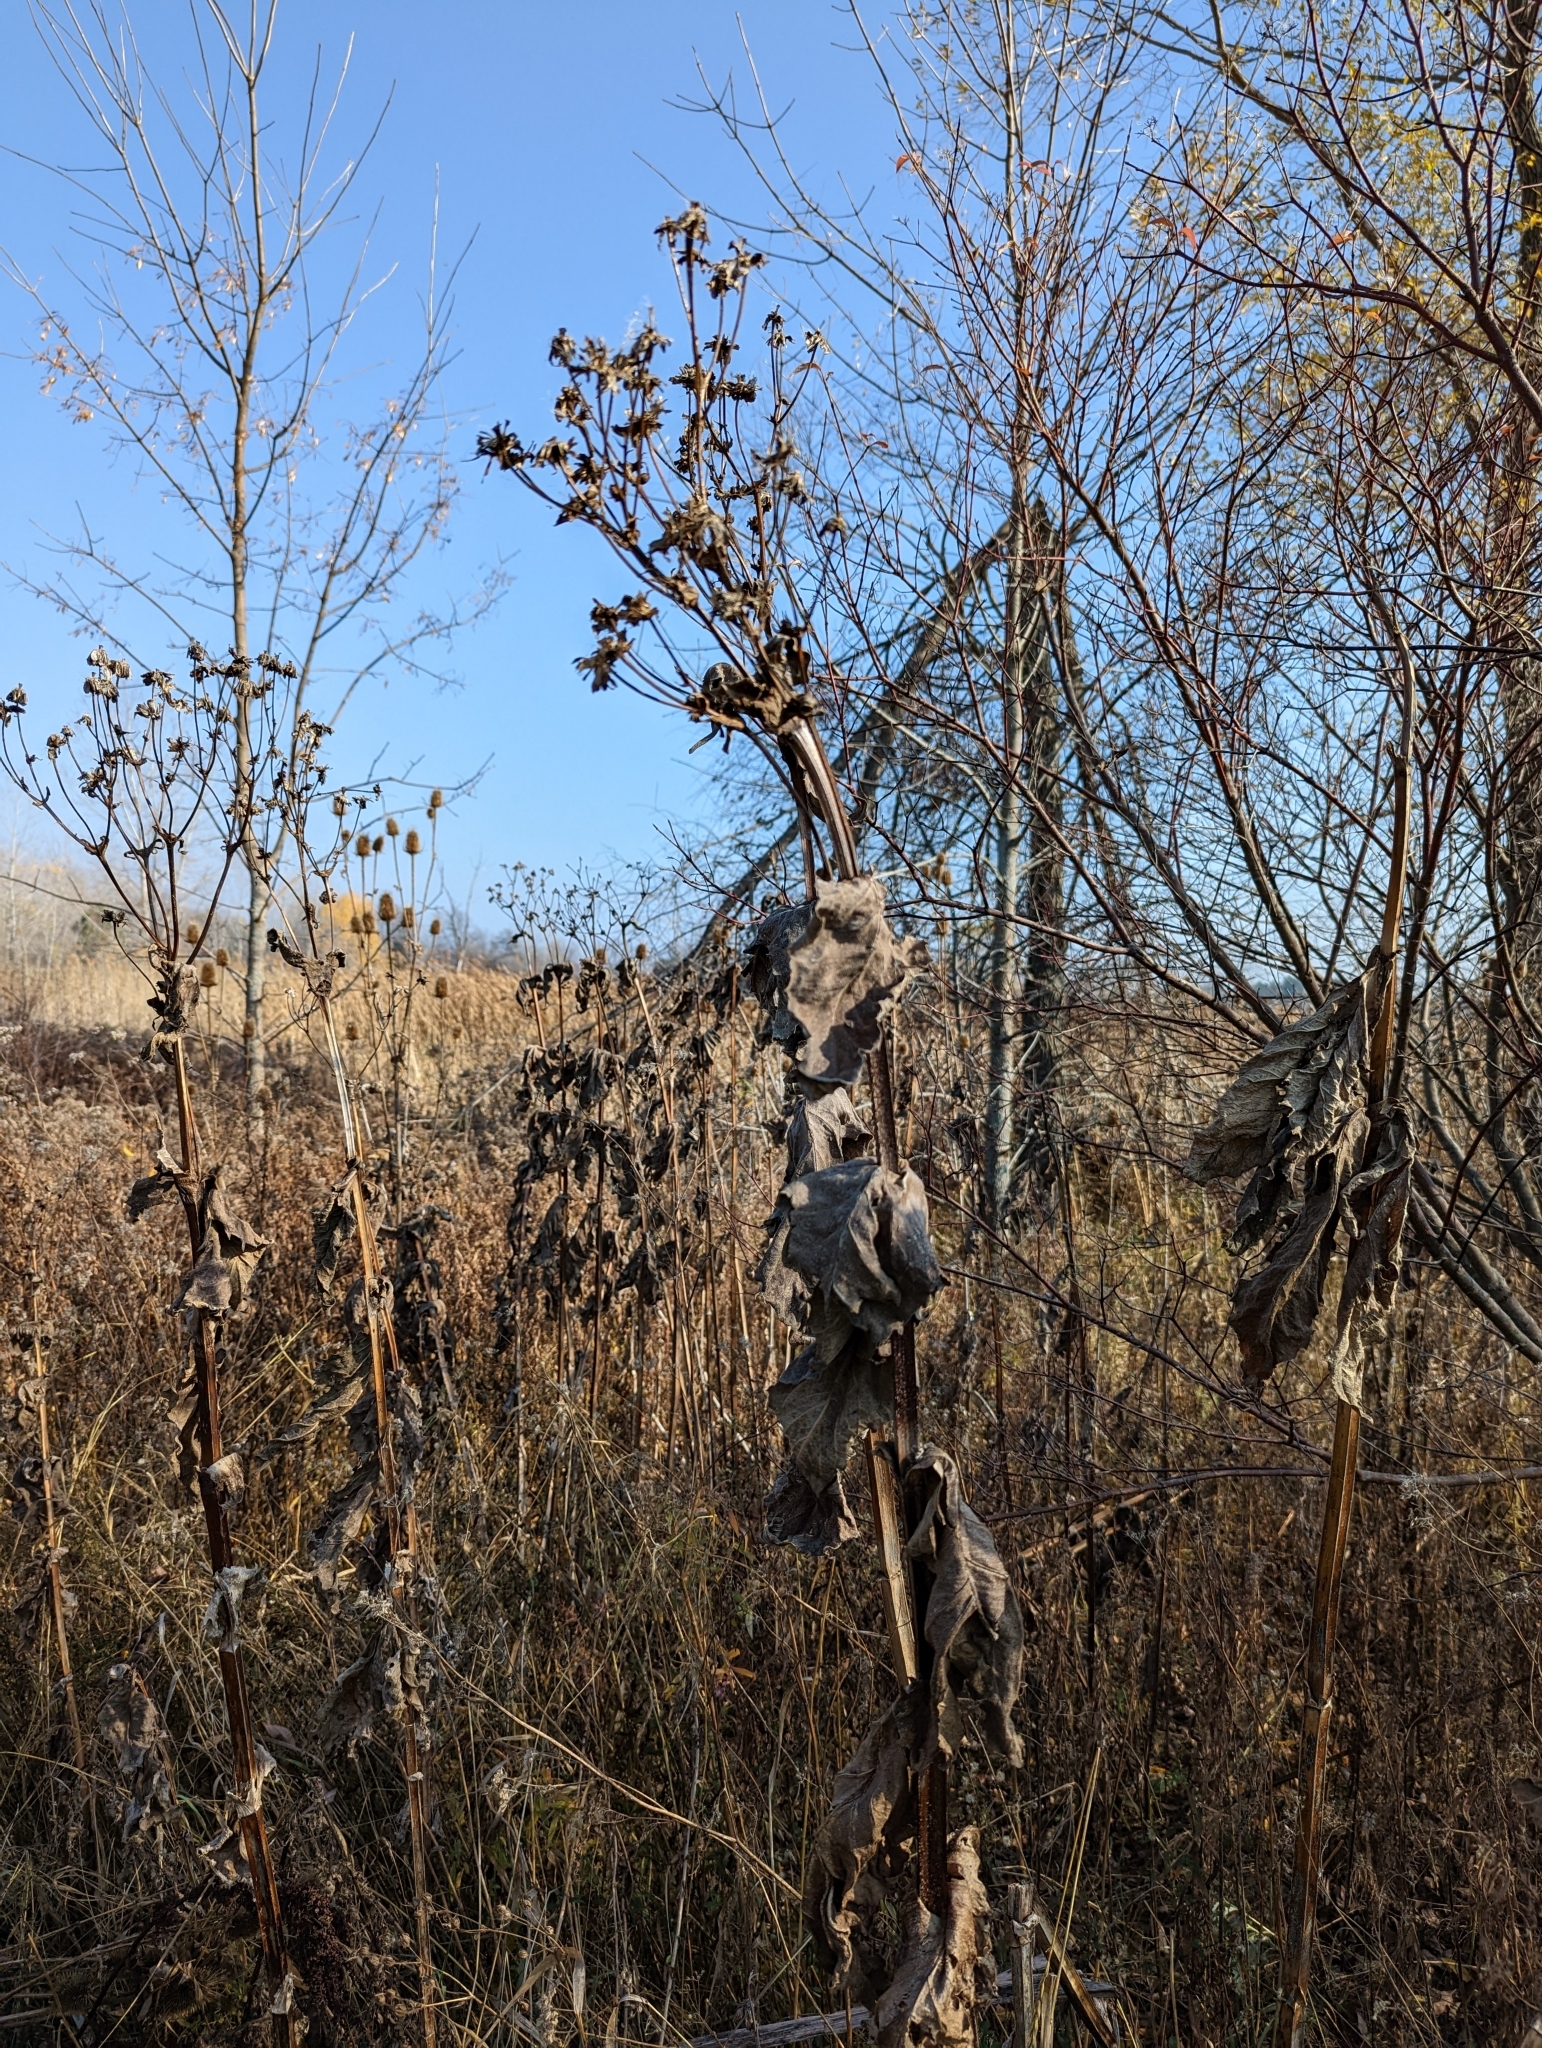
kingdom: Plantae
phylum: Tracheophyta
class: Magnoliopsida
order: Asterales
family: Asteraceae
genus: Silphium
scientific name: Silphium perfoliatum
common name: Cup-plant
